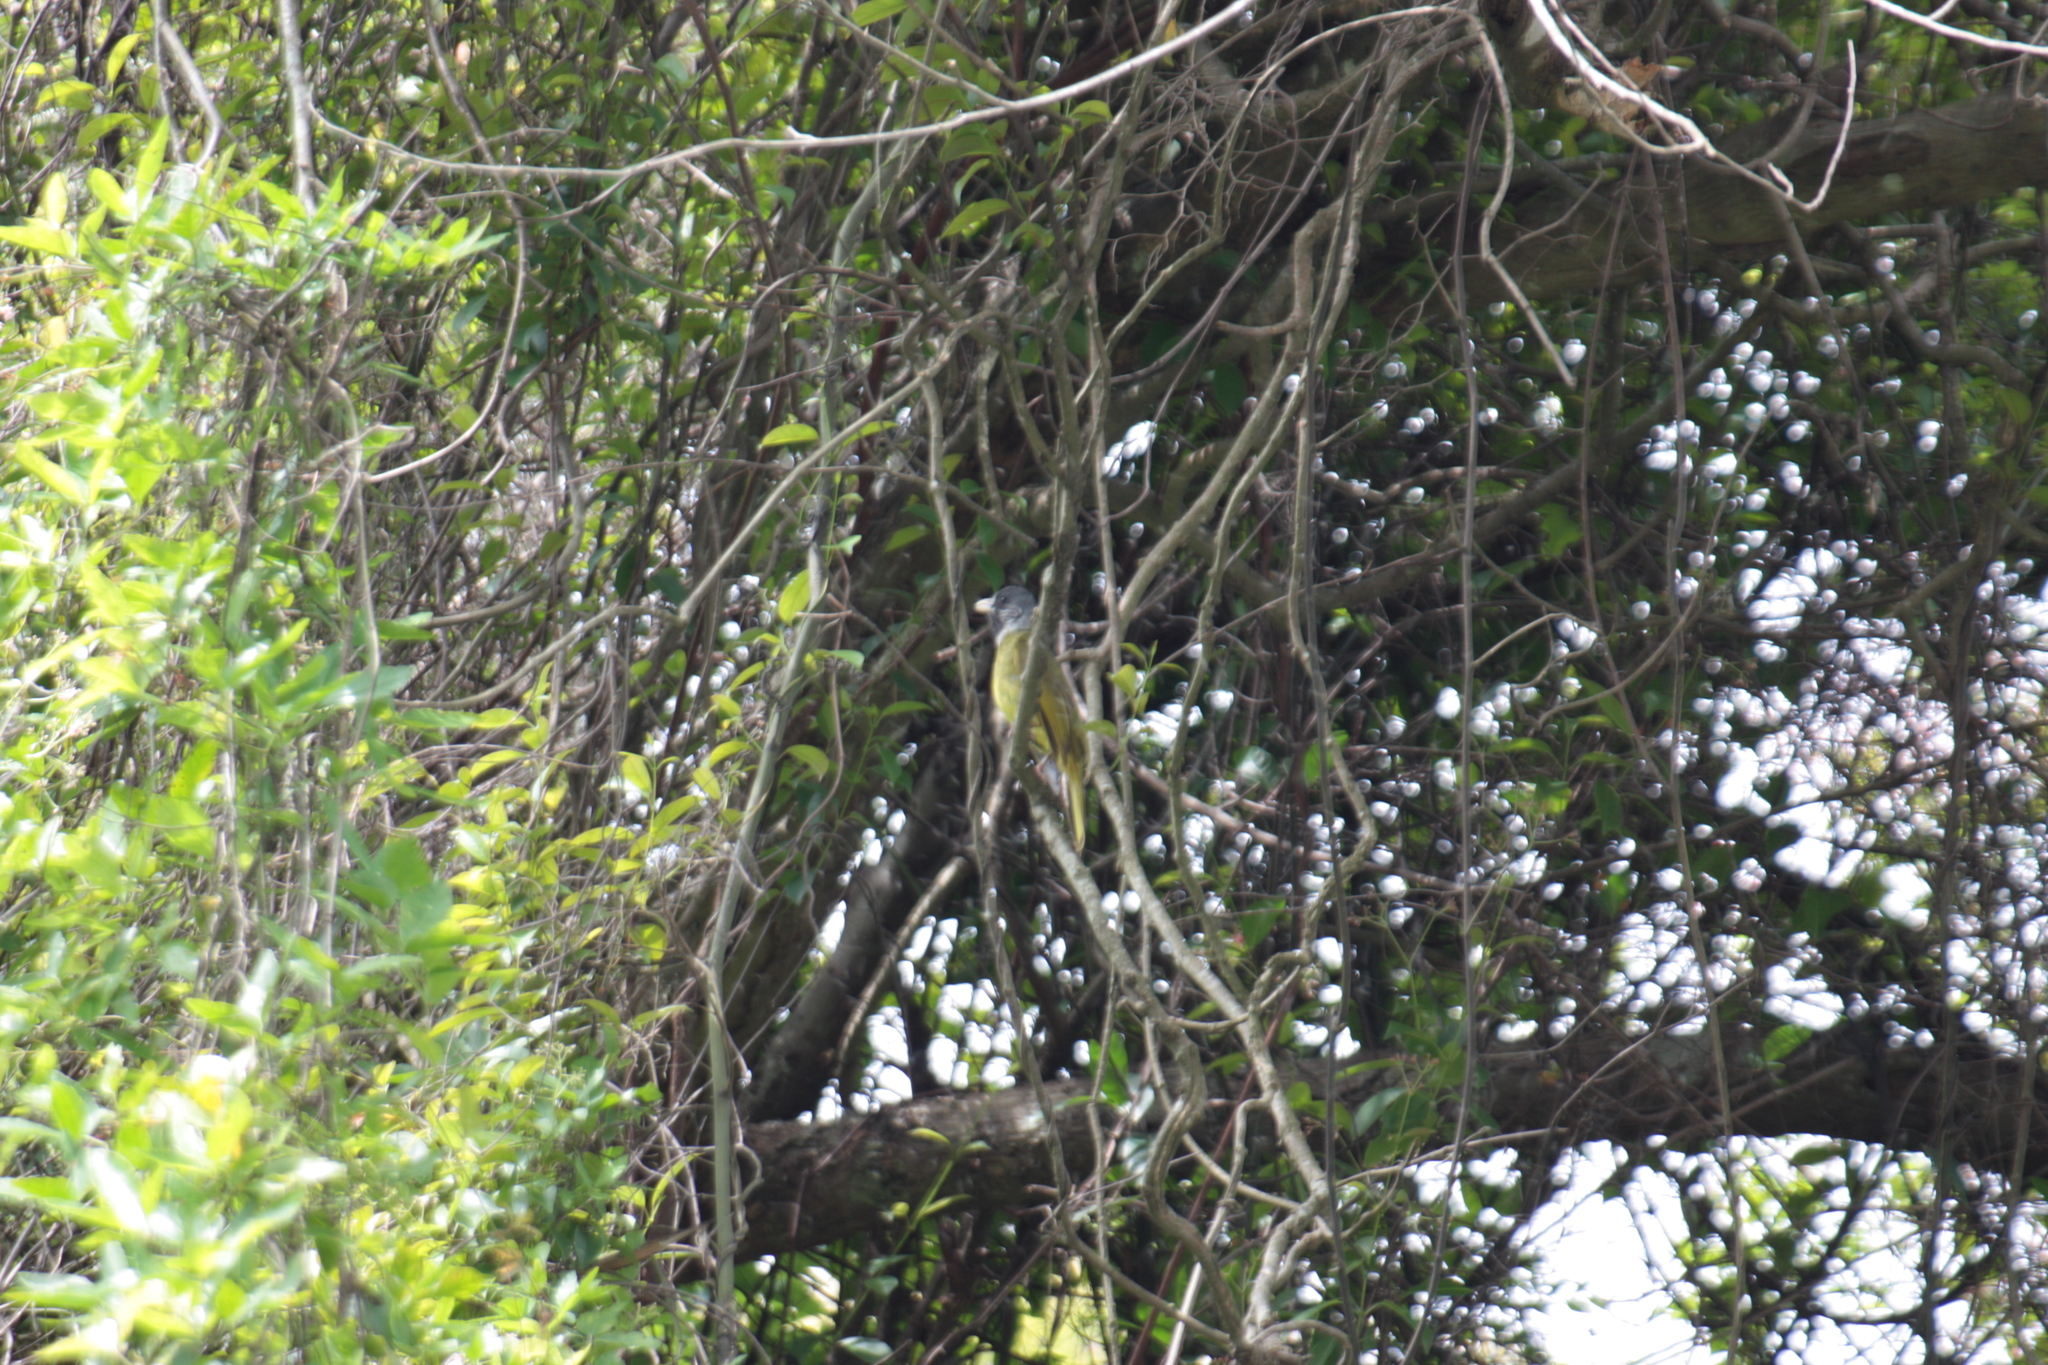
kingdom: Animalia
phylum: Chordata
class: Aves
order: Passeriformes
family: Pycnonotidae
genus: Spizixos
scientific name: Spizixos semitorques
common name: Collared finchbill
